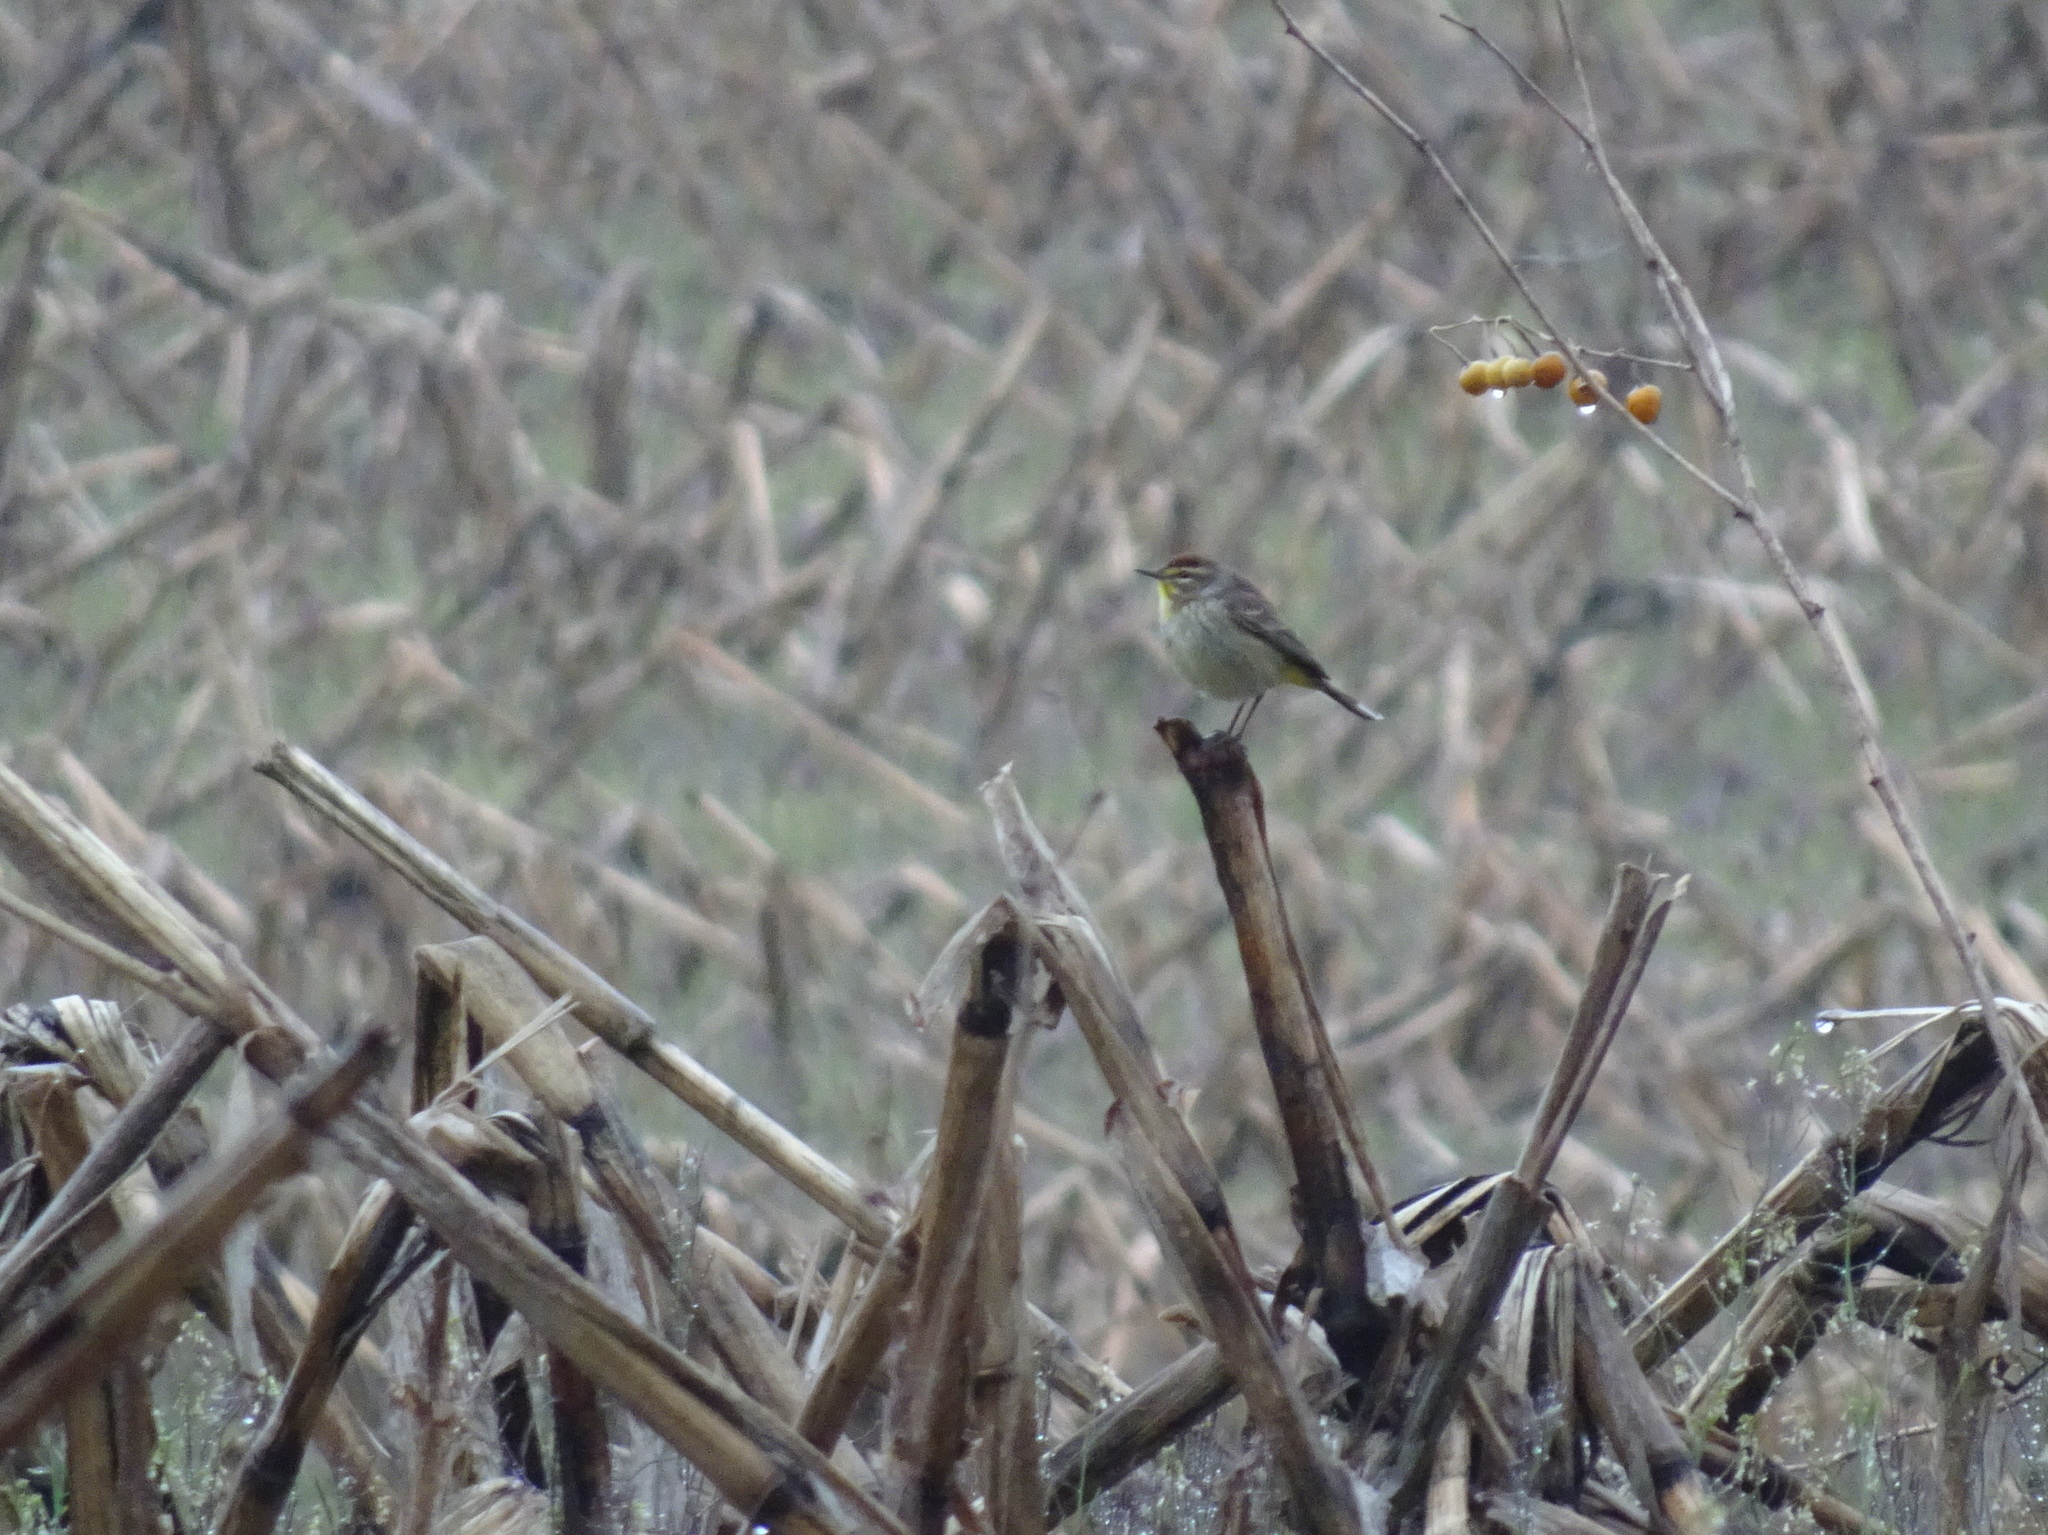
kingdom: Animalia
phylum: Chordata
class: Aves
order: Passeriformes
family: Parulidae
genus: Setophaga
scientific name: Setophaga palmarum
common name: Palm warbler
